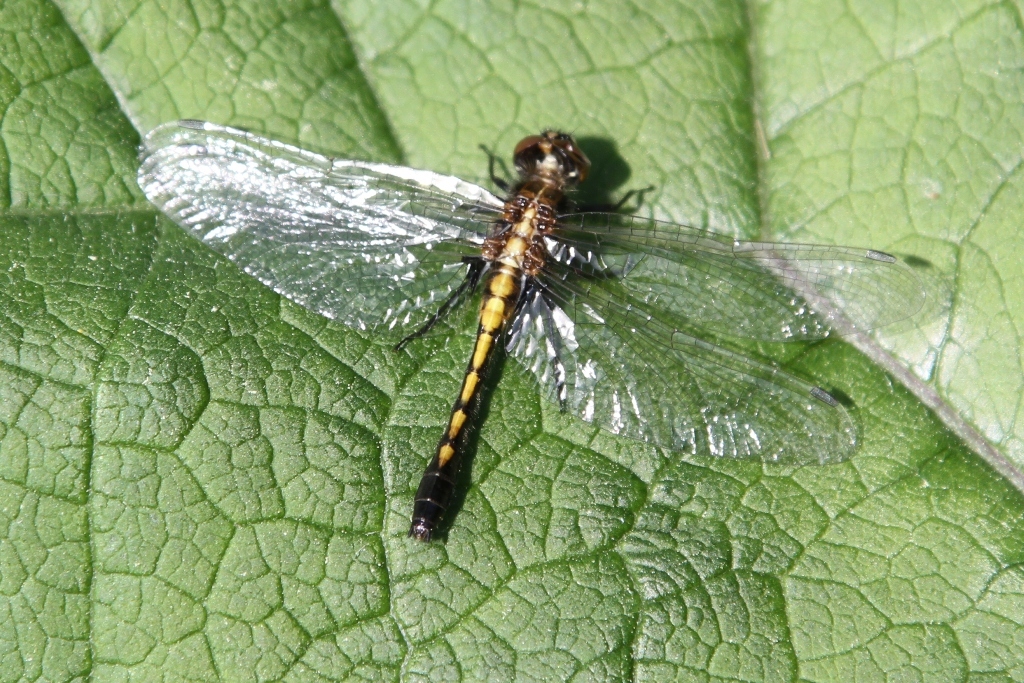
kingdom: Animalia
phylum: Arthropoda
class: Insecta
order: Odonata
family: Libellulidae
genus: Leucorrhinia
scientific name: Leucorrhinia intacta
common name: Dot-tailed whiteface
